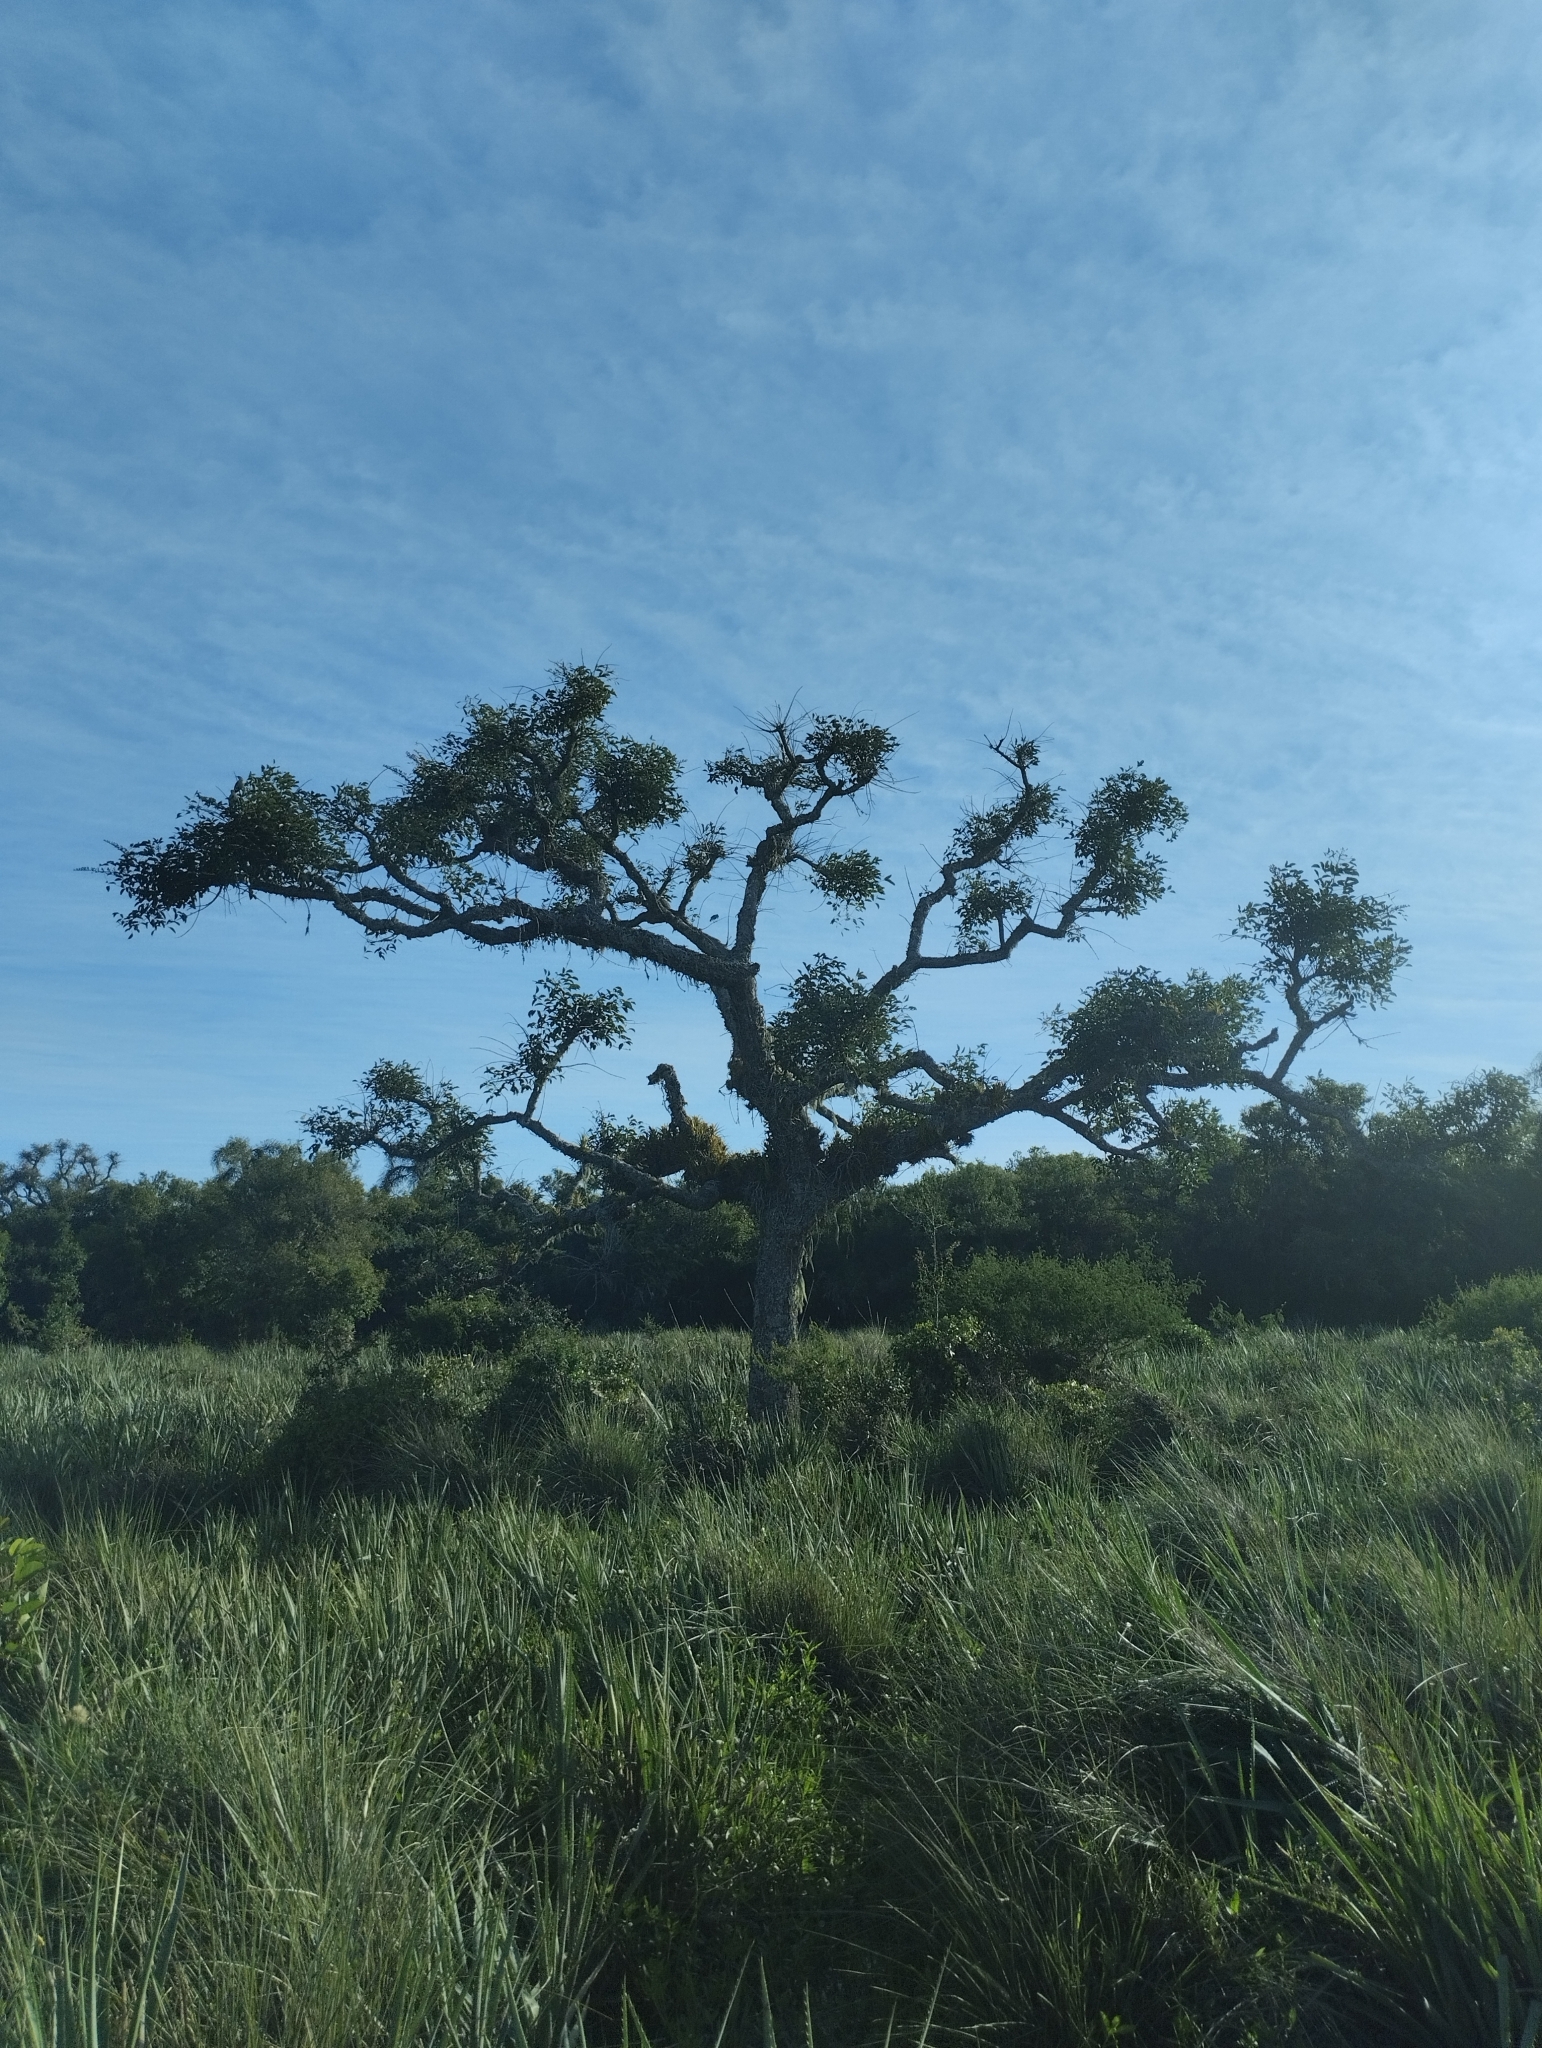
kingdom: Plantae
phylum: Tracheophyta
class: Liliopsida
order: Poales
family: Bromeliaceae
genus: Aechmea
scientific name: Aechmea recurvata
